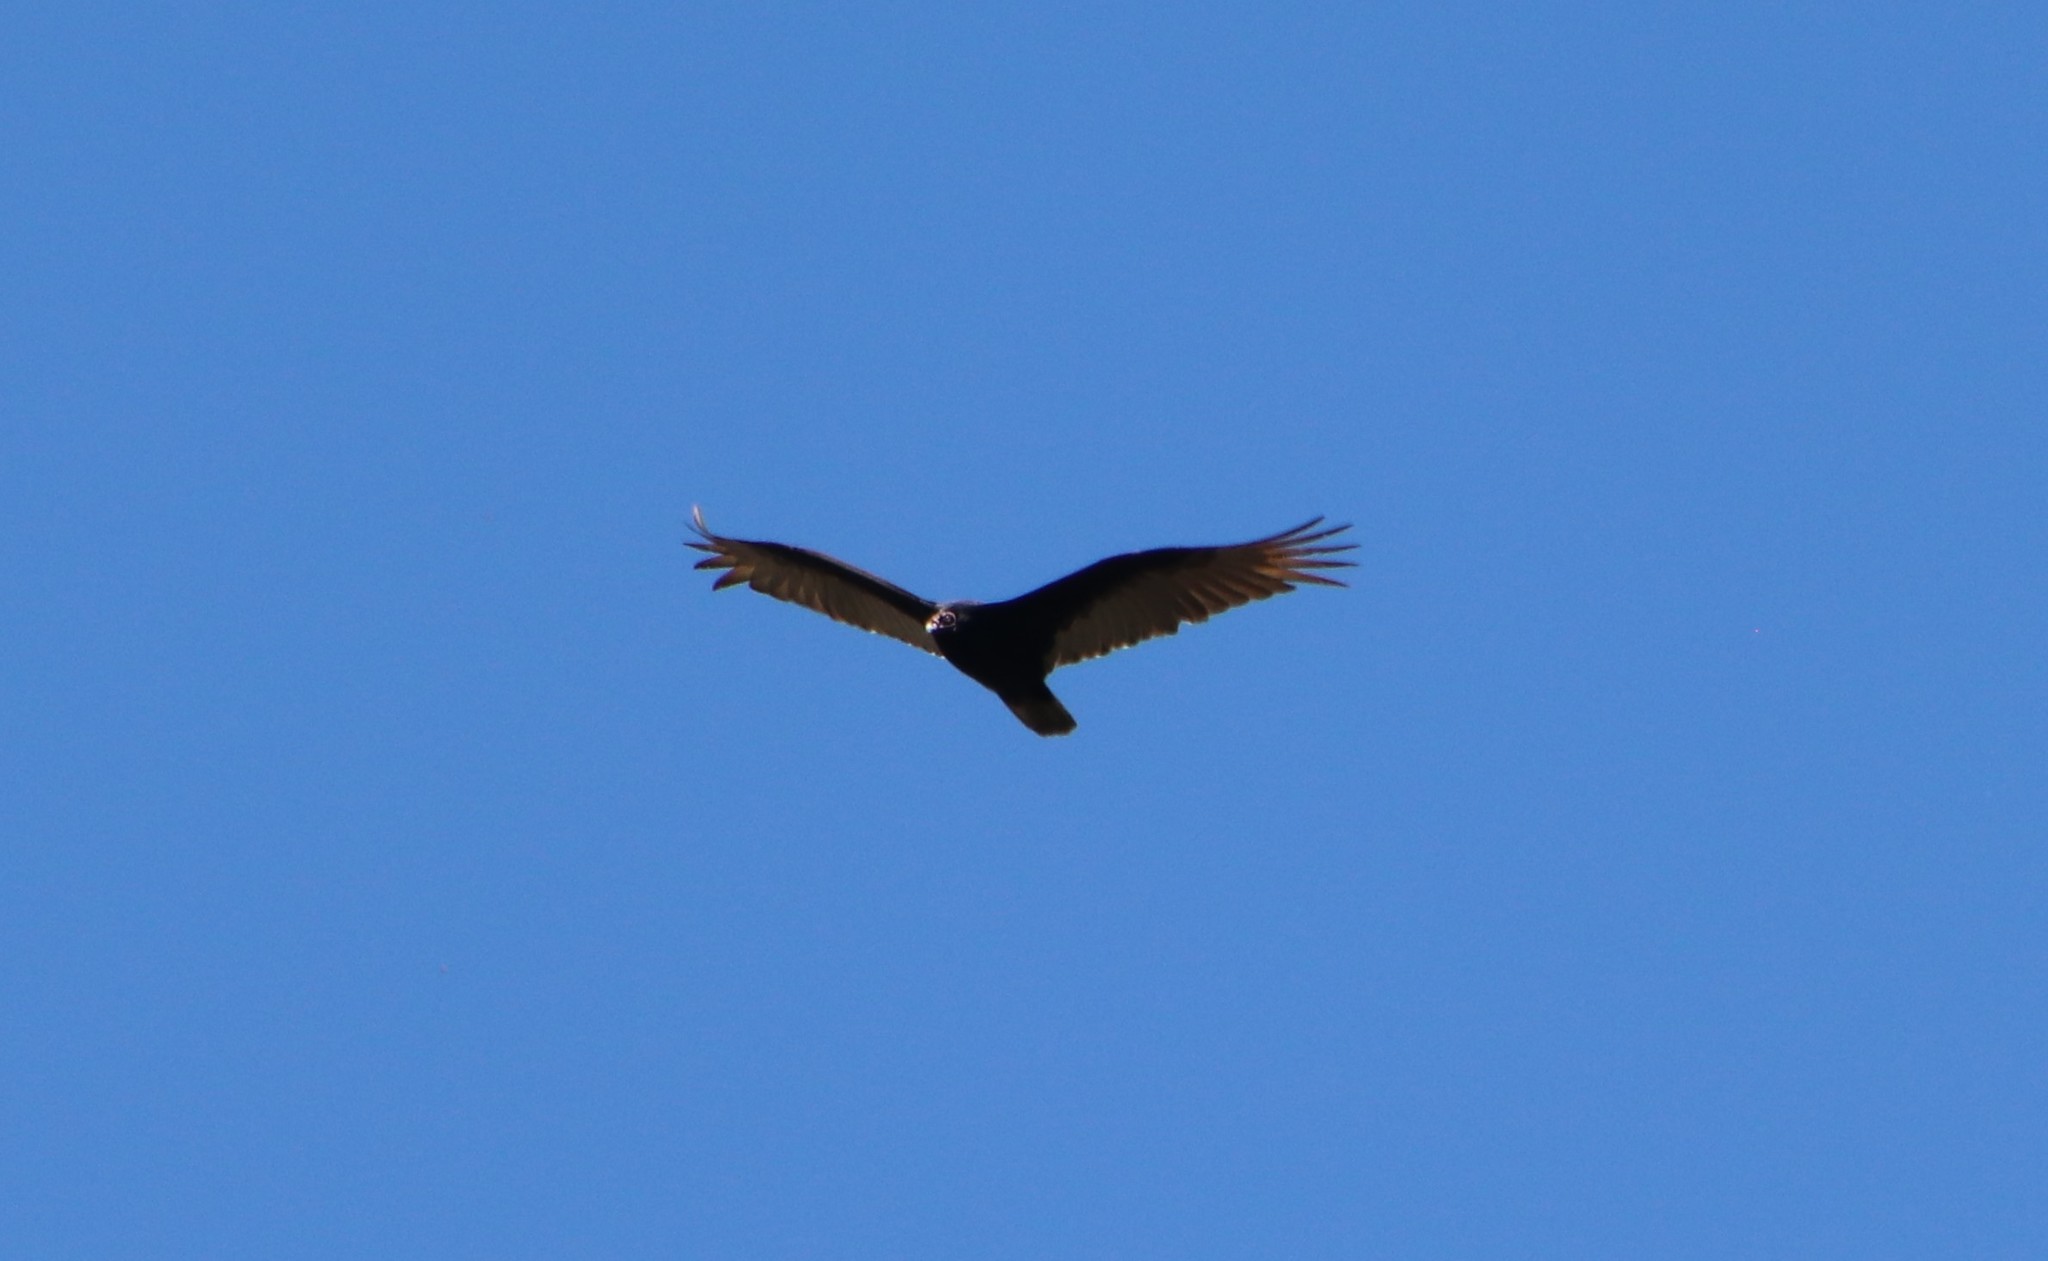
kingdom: Animalia
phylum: Chordata
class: Aves
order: Accipitriformes
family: Cathartidae
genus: Cathartes
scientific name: Cathartes aura
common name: Turkey vulture
